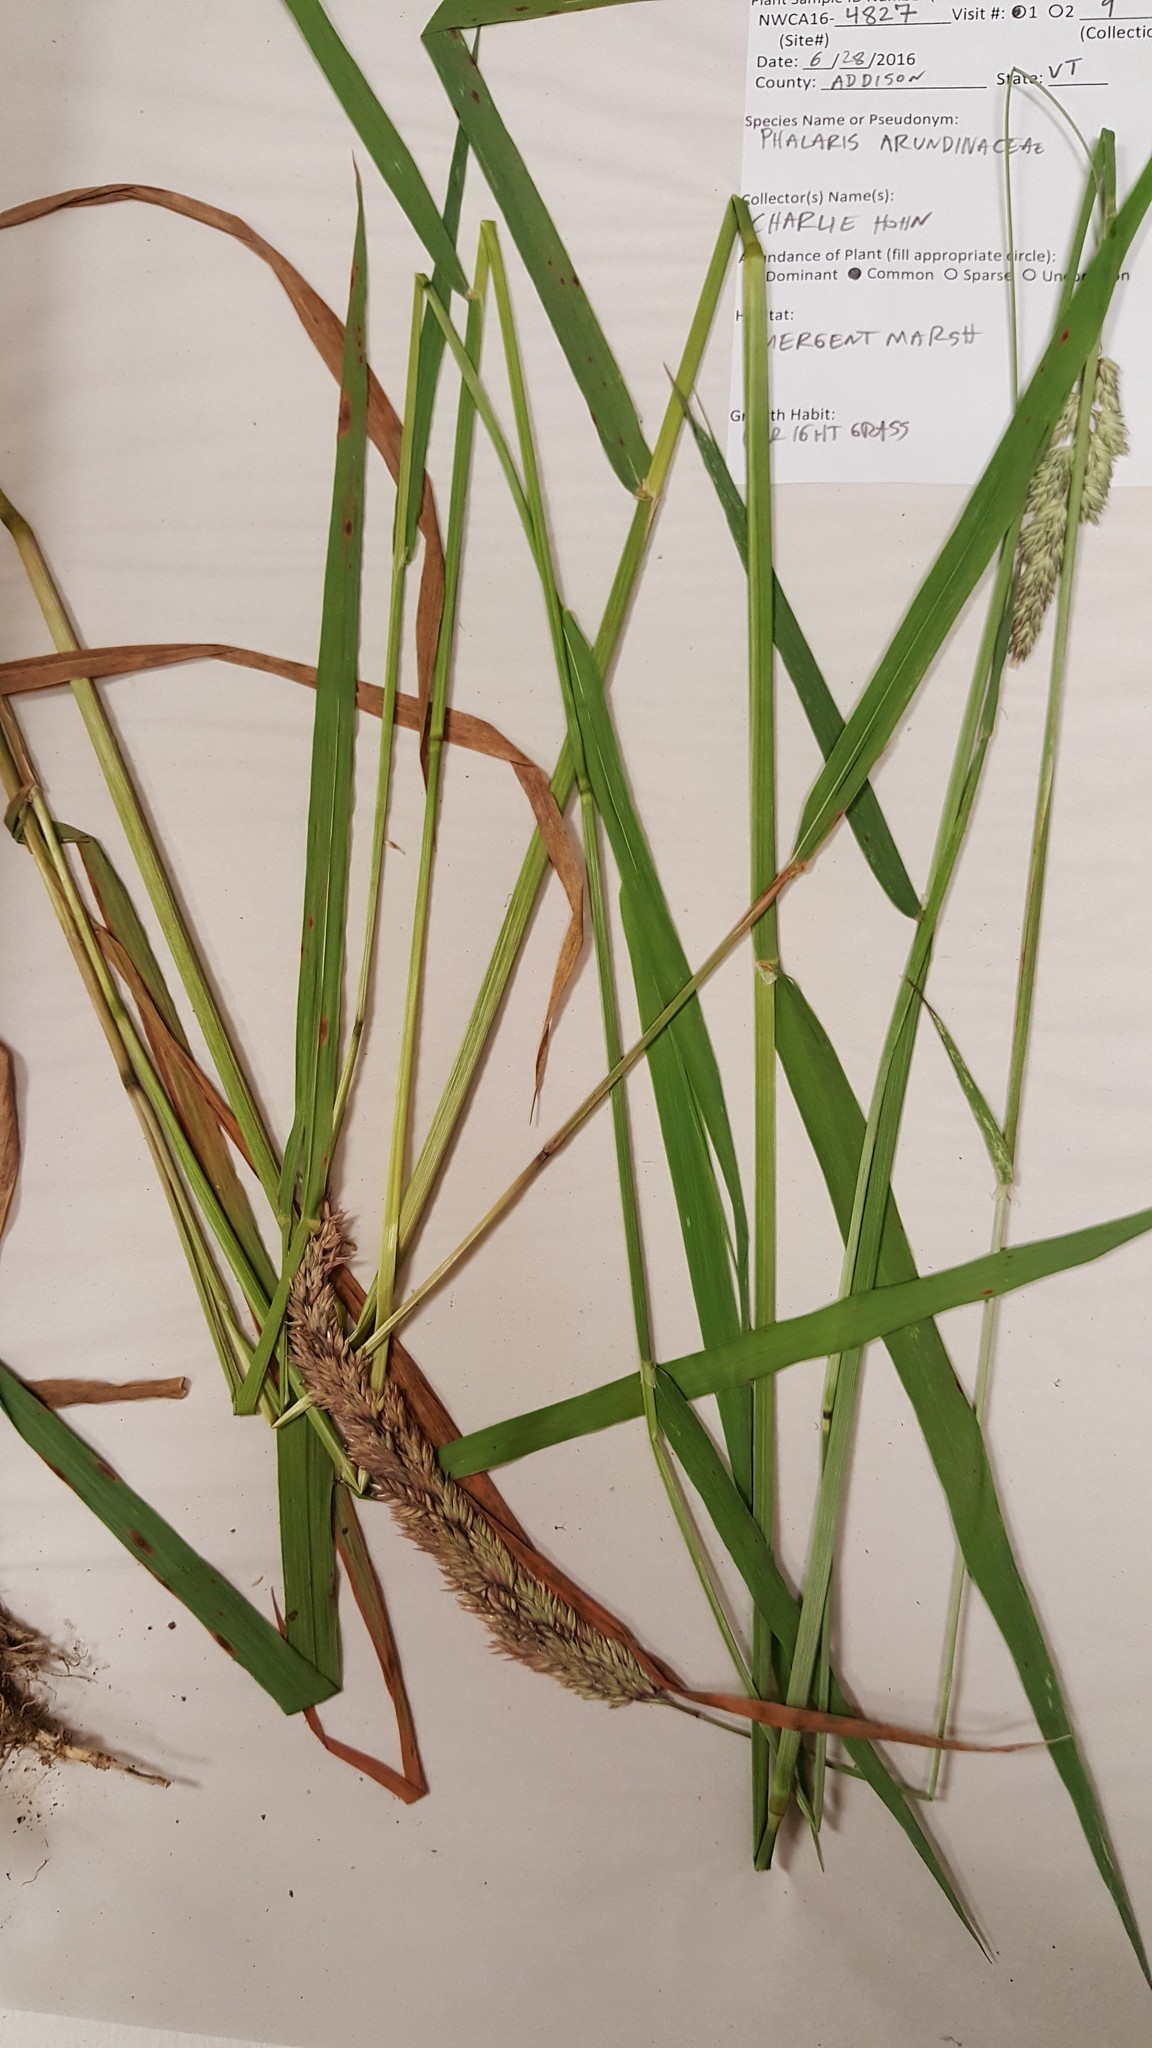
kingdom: Plantae
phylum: Tracheophyta
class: Liliopsida
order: Poales
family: Poaceae
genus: Phalaris
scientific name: Phalaris arundinacea
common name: Reed canary-grass
